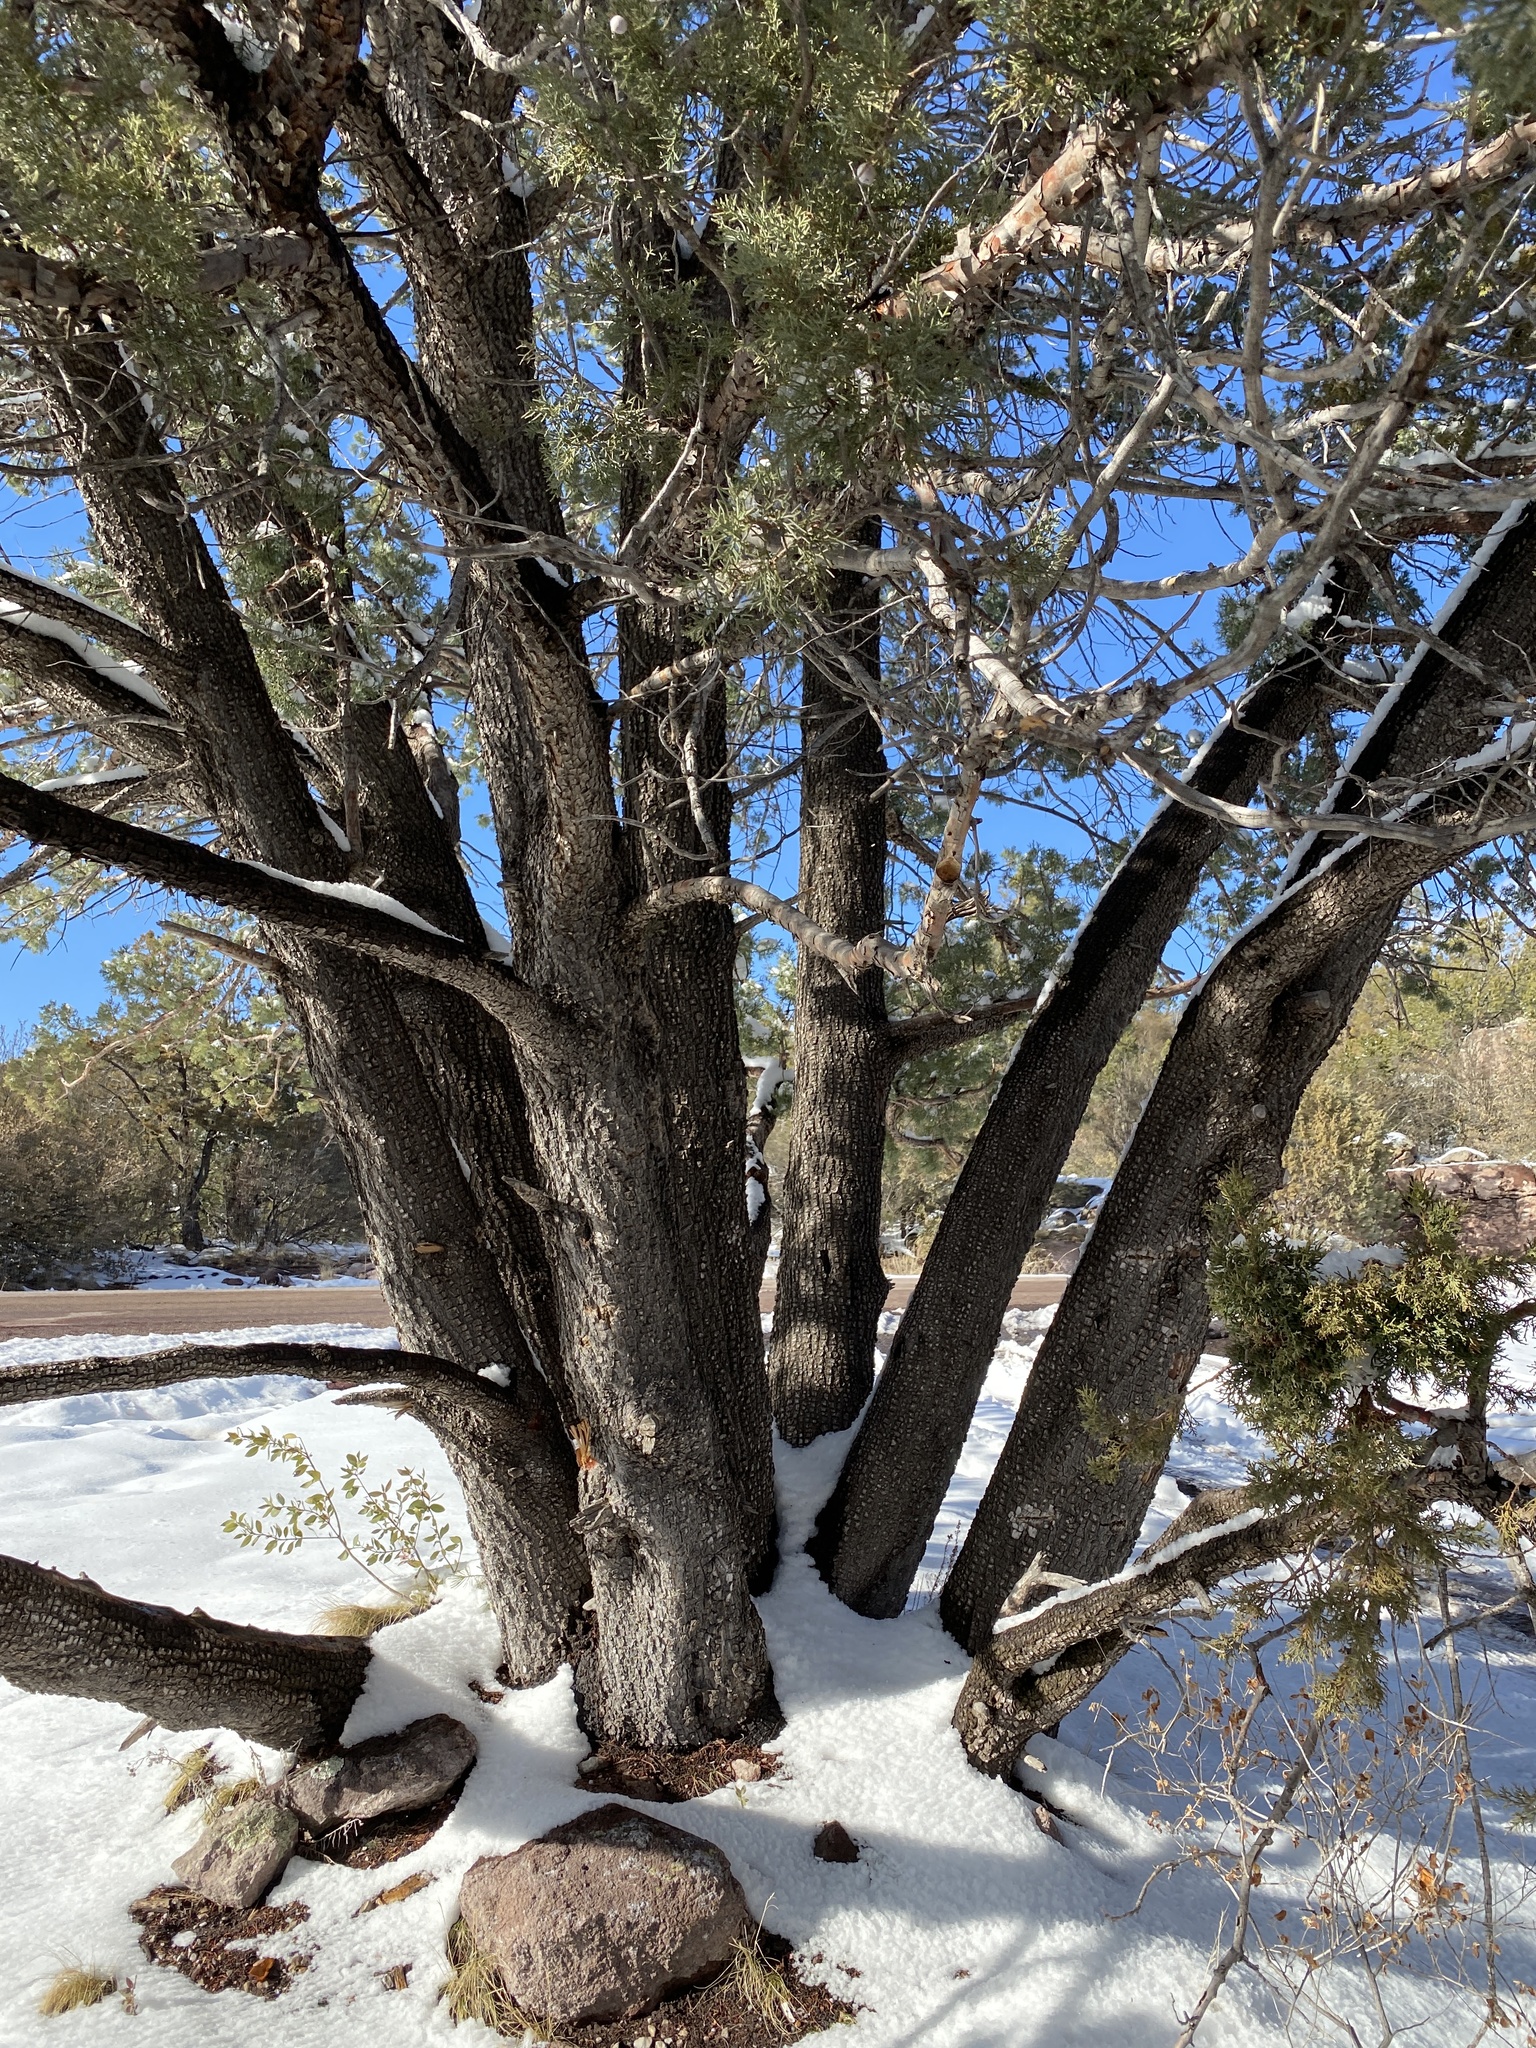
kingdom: Plantae
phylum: Tracheophyta
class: Pinopsida
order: Pinales
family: Cupressaceae
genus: Juniperus
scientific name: Juniperus deppeana
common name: Alligator juniper
